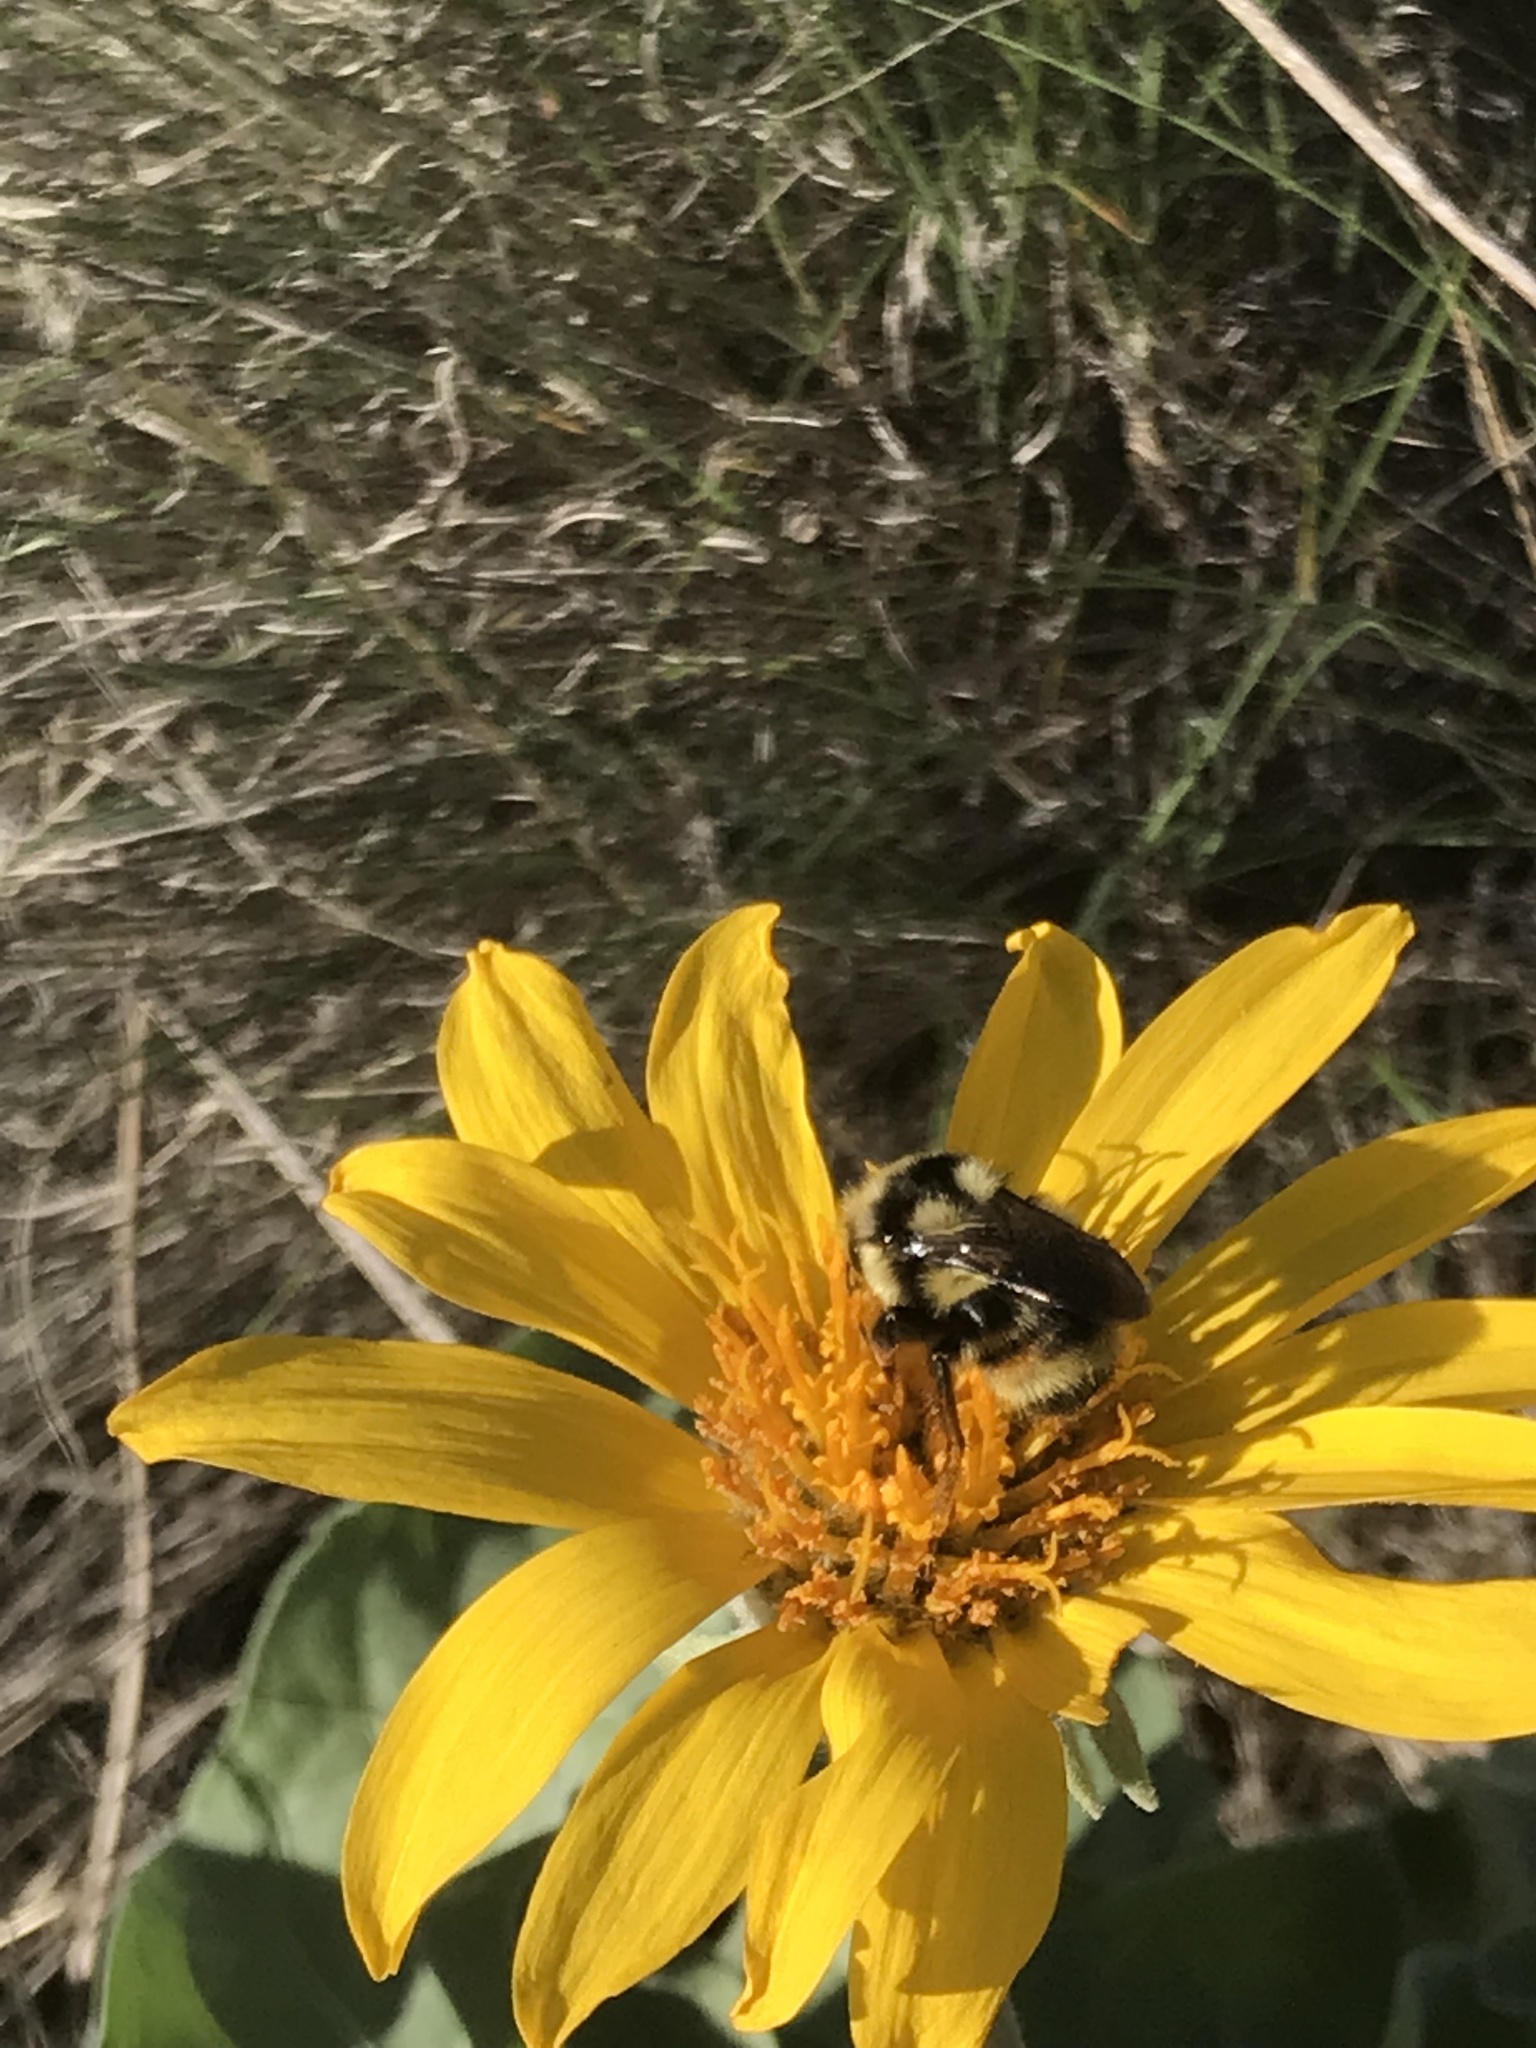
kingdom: Animalia
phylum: Arthropoda
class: Insecta
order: Hymenoptera
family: Apidae
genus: Bombus
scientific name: Bombus vancouverensis
